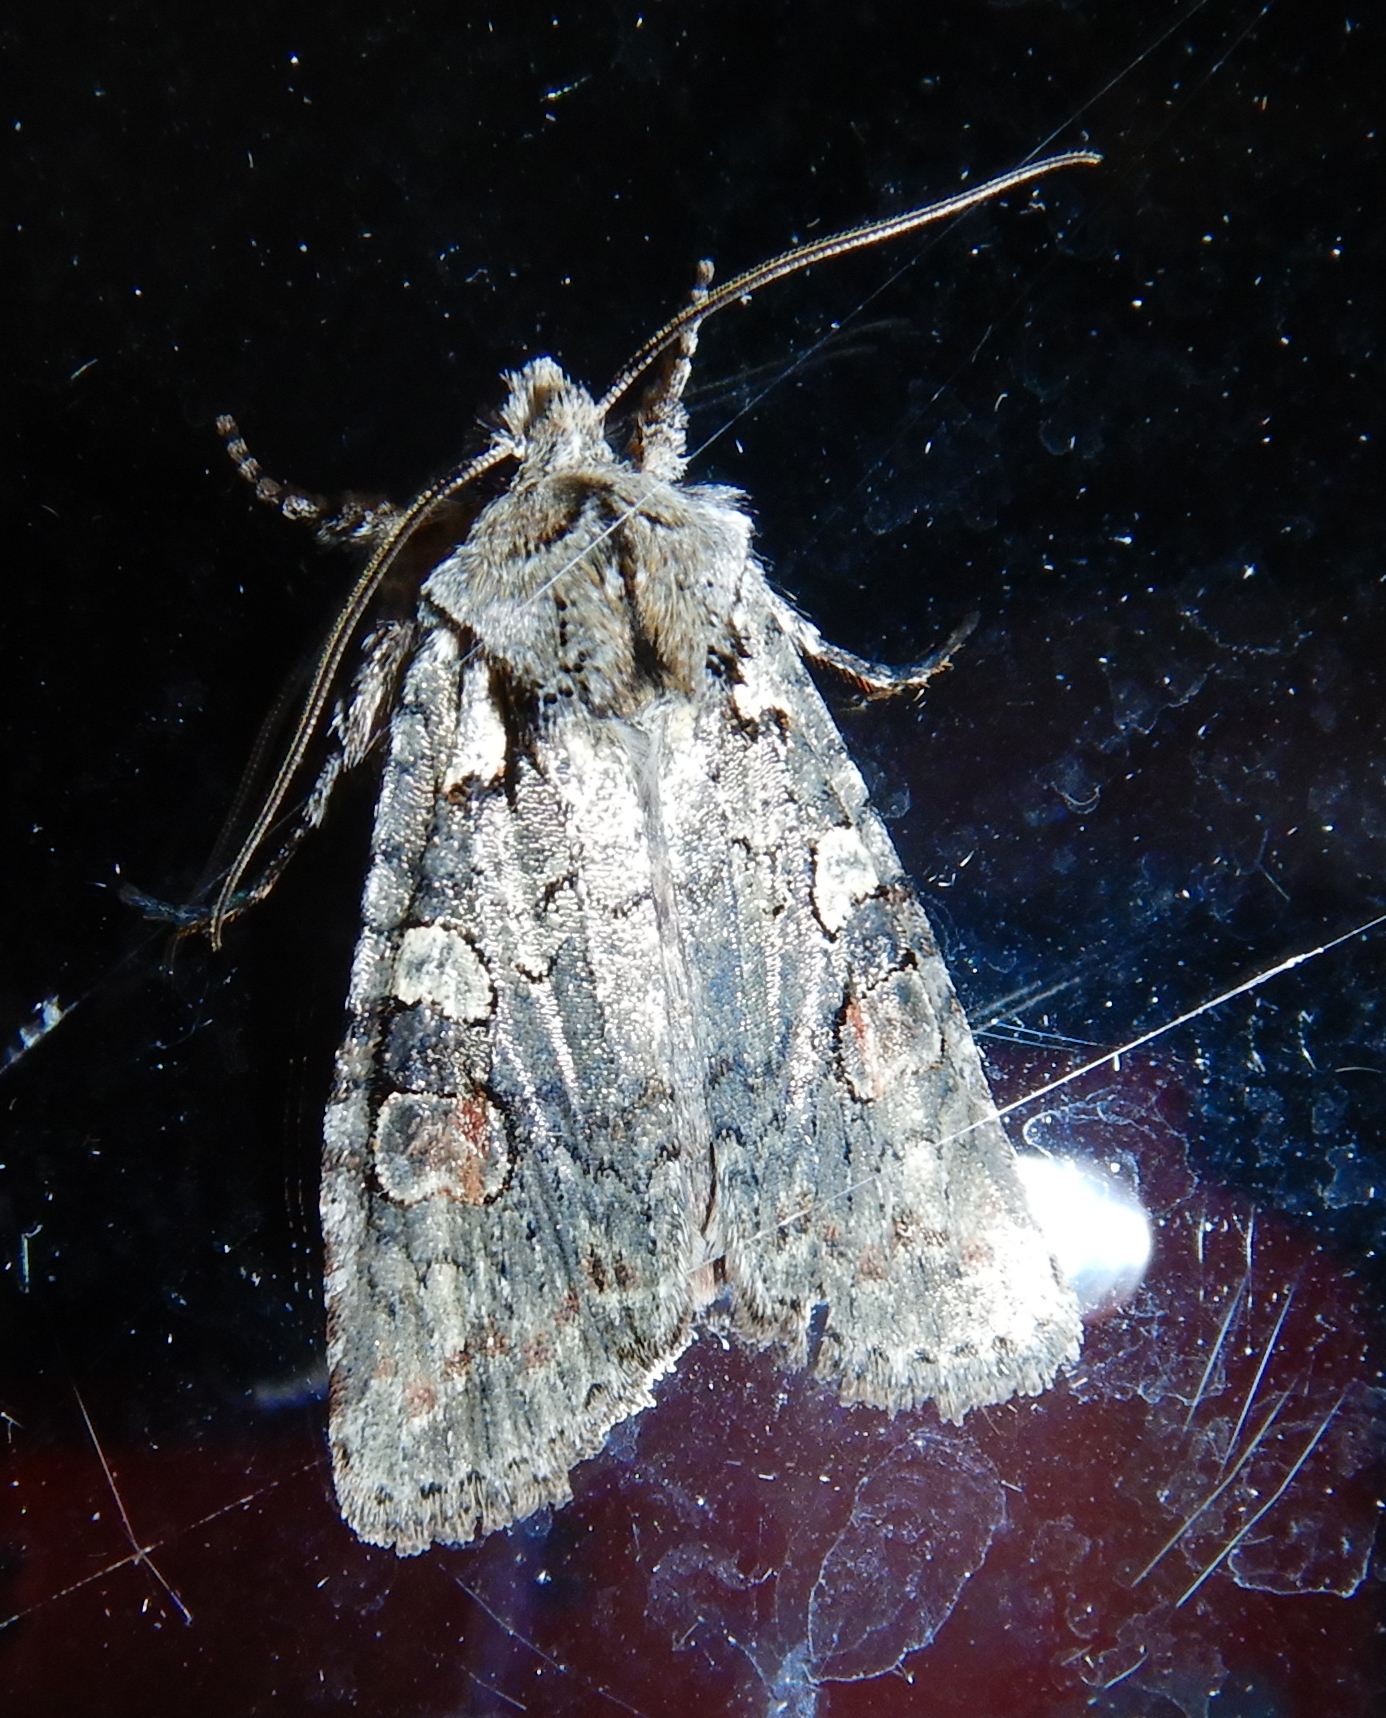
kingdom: Animalia
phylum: Arthropoda
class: Insecta
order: Lepidoptera
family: Noctuidae
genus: Lithophane
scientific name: Lithophane baileyi
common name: Bailey's pinion moth
